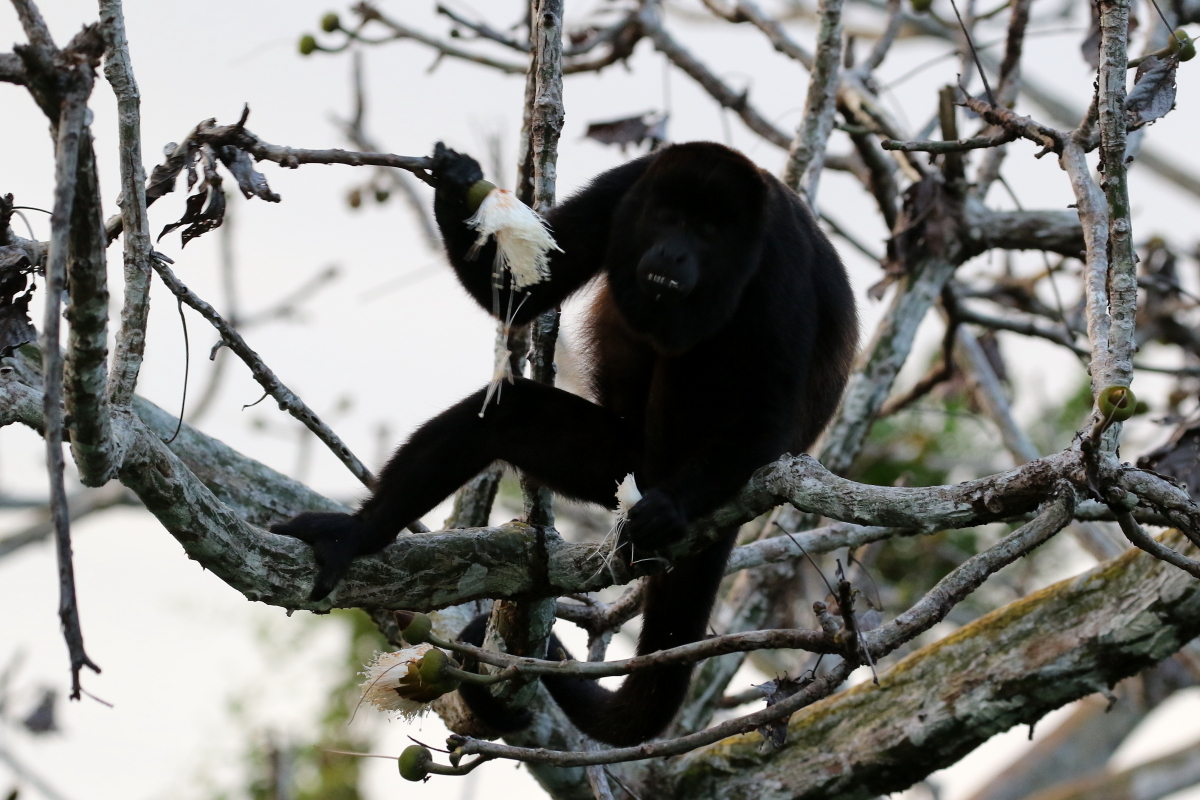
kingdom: Animalia
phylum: Chordata
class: Mammalia
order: Primates
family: Atelidae
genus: Alouatta
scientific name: Alouatta palliata
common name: Mantled howler
